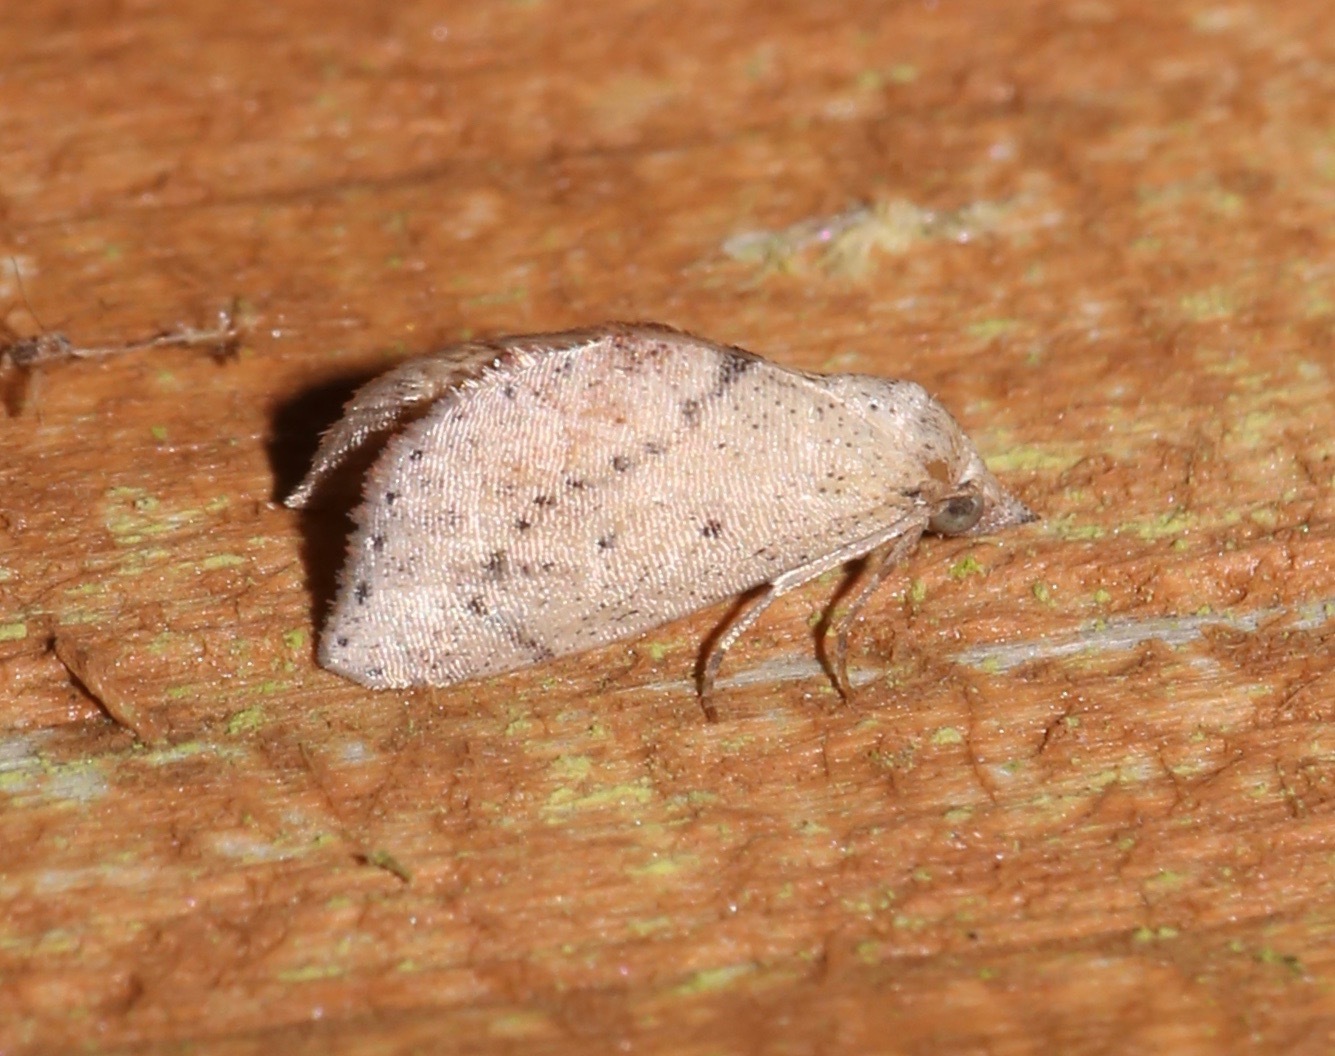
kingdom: Animalia
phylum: Arthropoda
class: Insecta
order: Lepidoptera
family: Noctuidae
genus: Proroblemma
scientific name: Proroblemma testa
